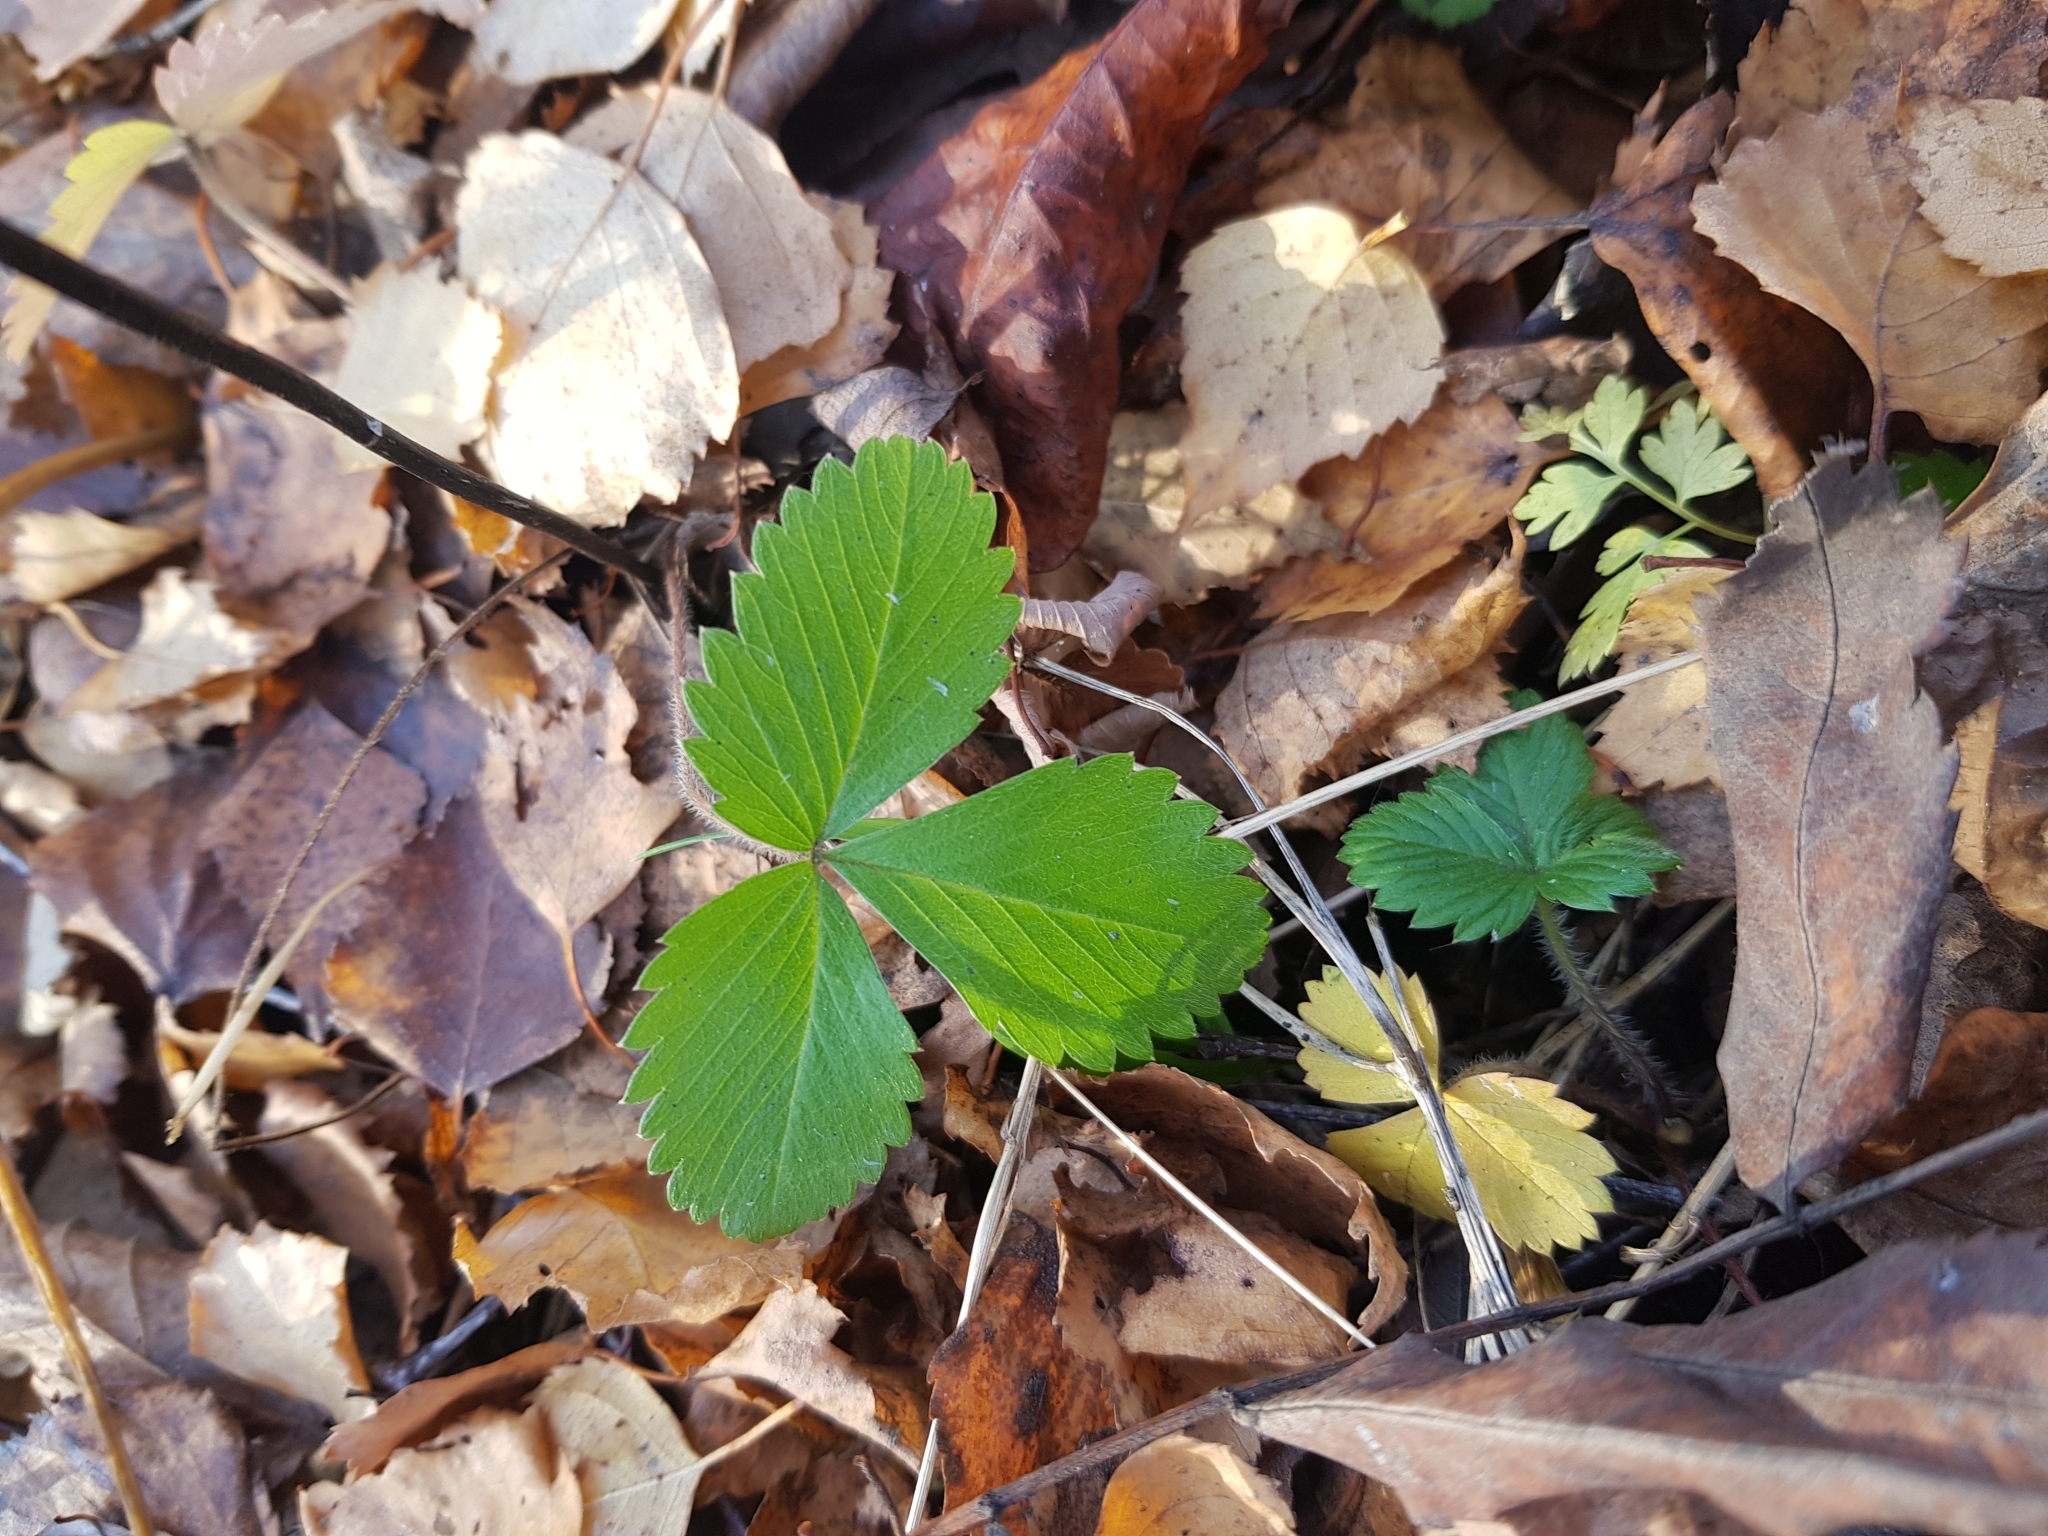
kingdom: Plantae
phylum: Tracheophyta
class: Magnoliopsida
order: Rosales
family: Rosaceae
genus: Fragaria
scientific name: Fragaria vesca
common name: Wild strawberry
